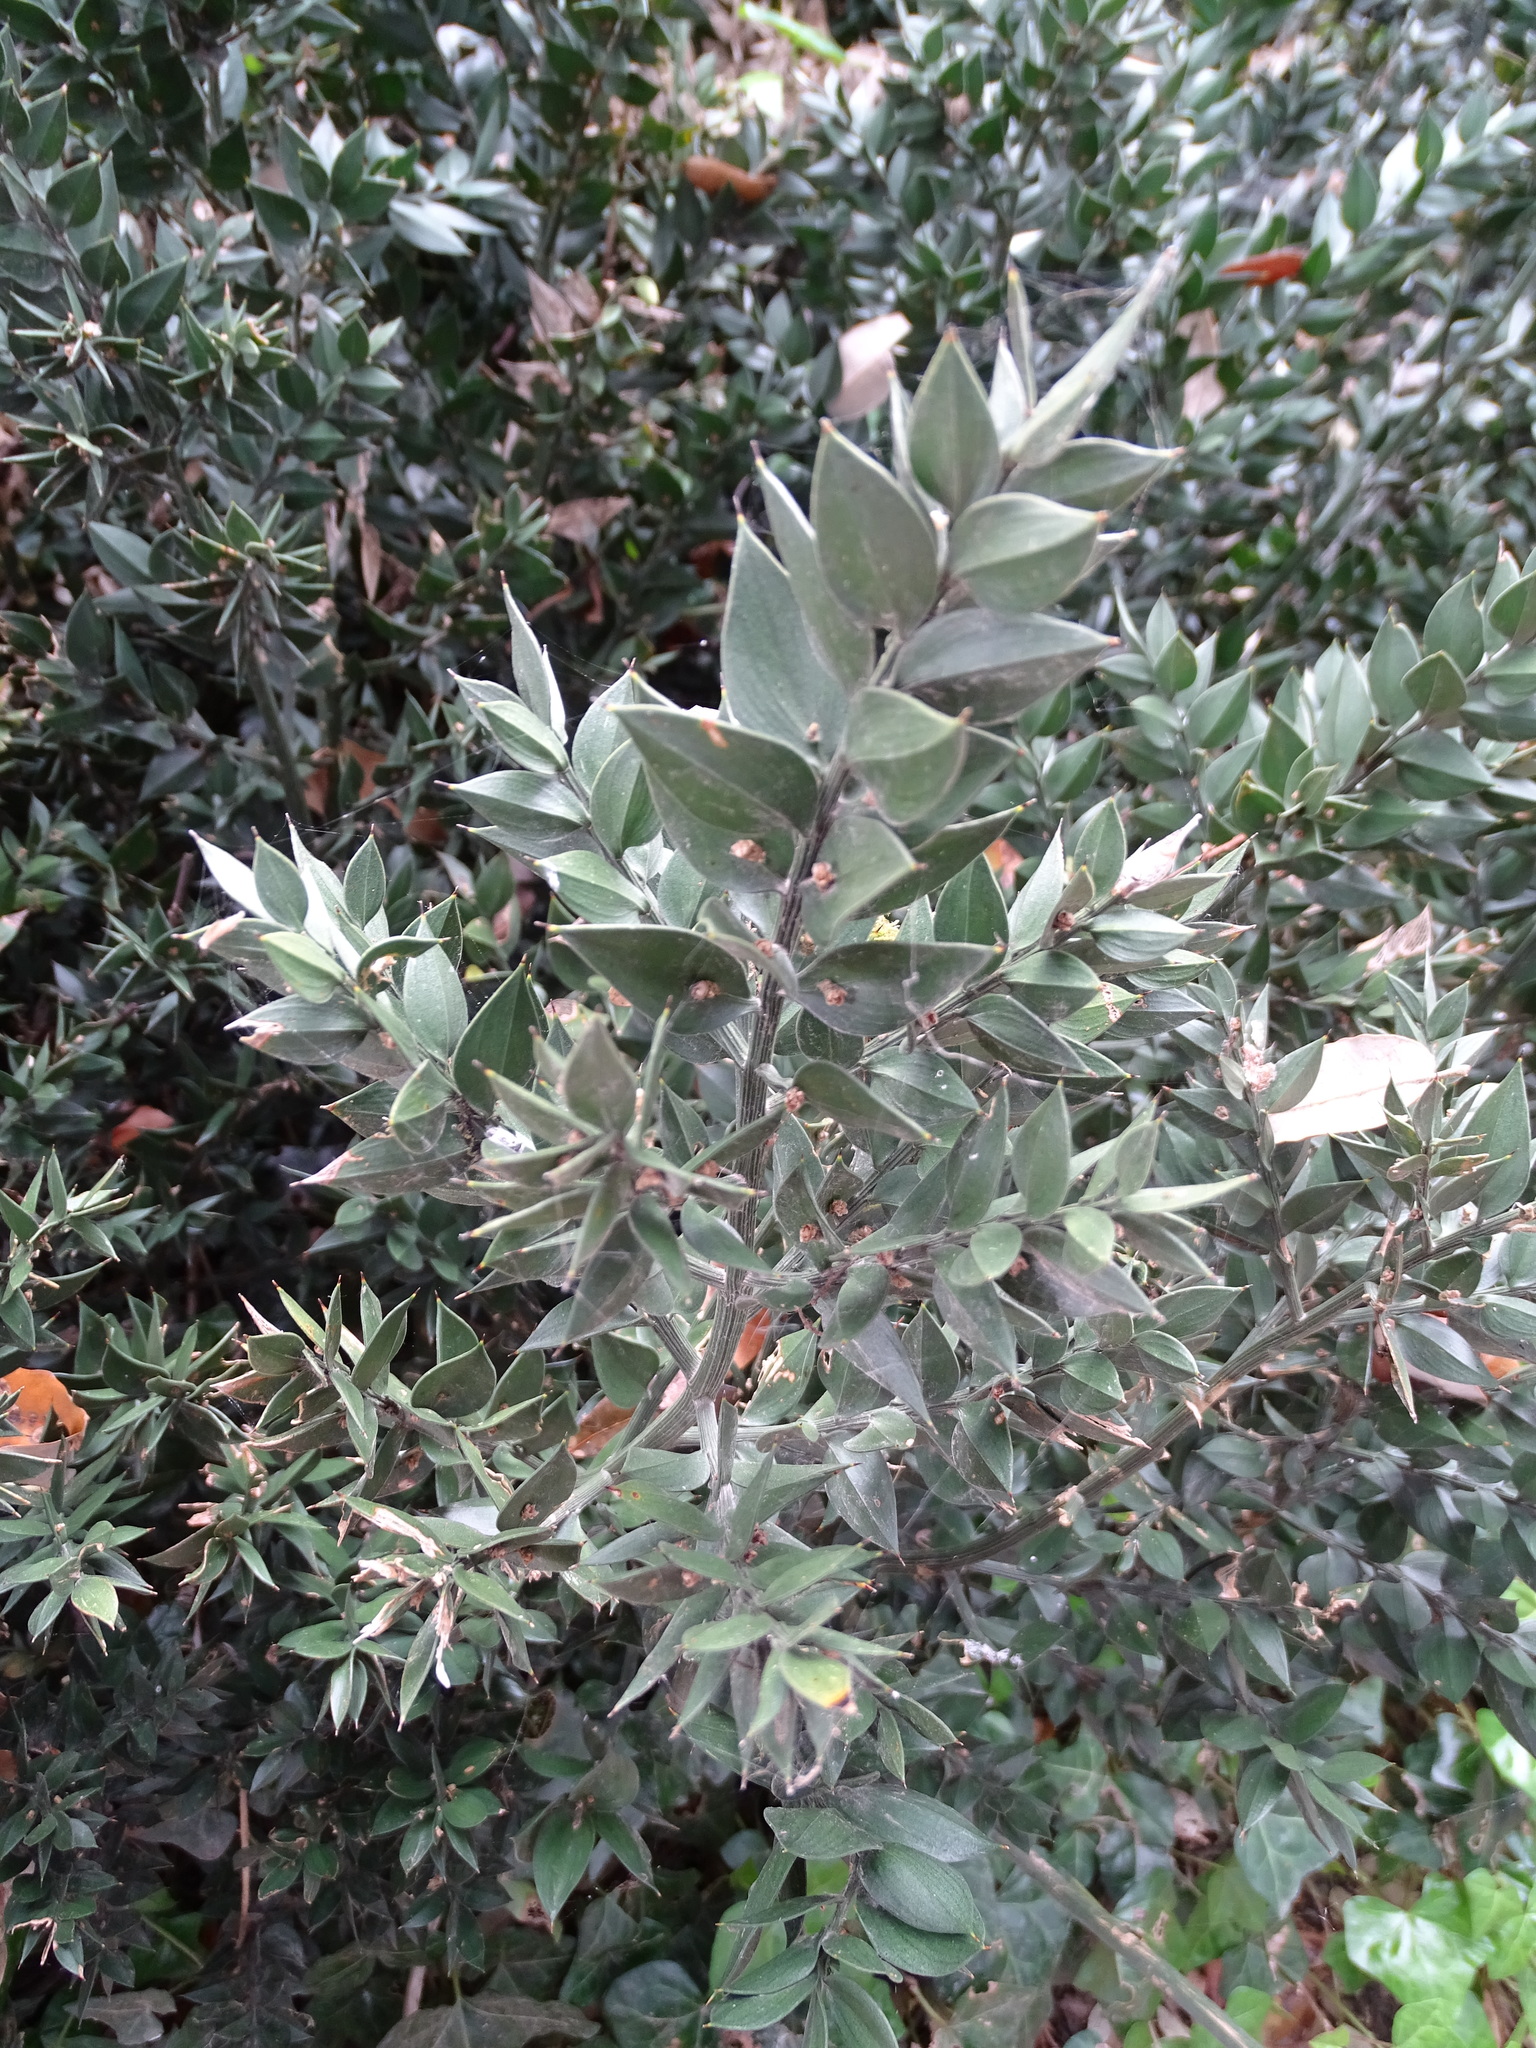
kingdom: Plantae
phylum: Tracheophyta
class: Liliopsida
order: Asparagales
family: Asparagaceae
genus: Ruscus
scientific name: Ruscus aculeatus
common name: Butcher's-broom
